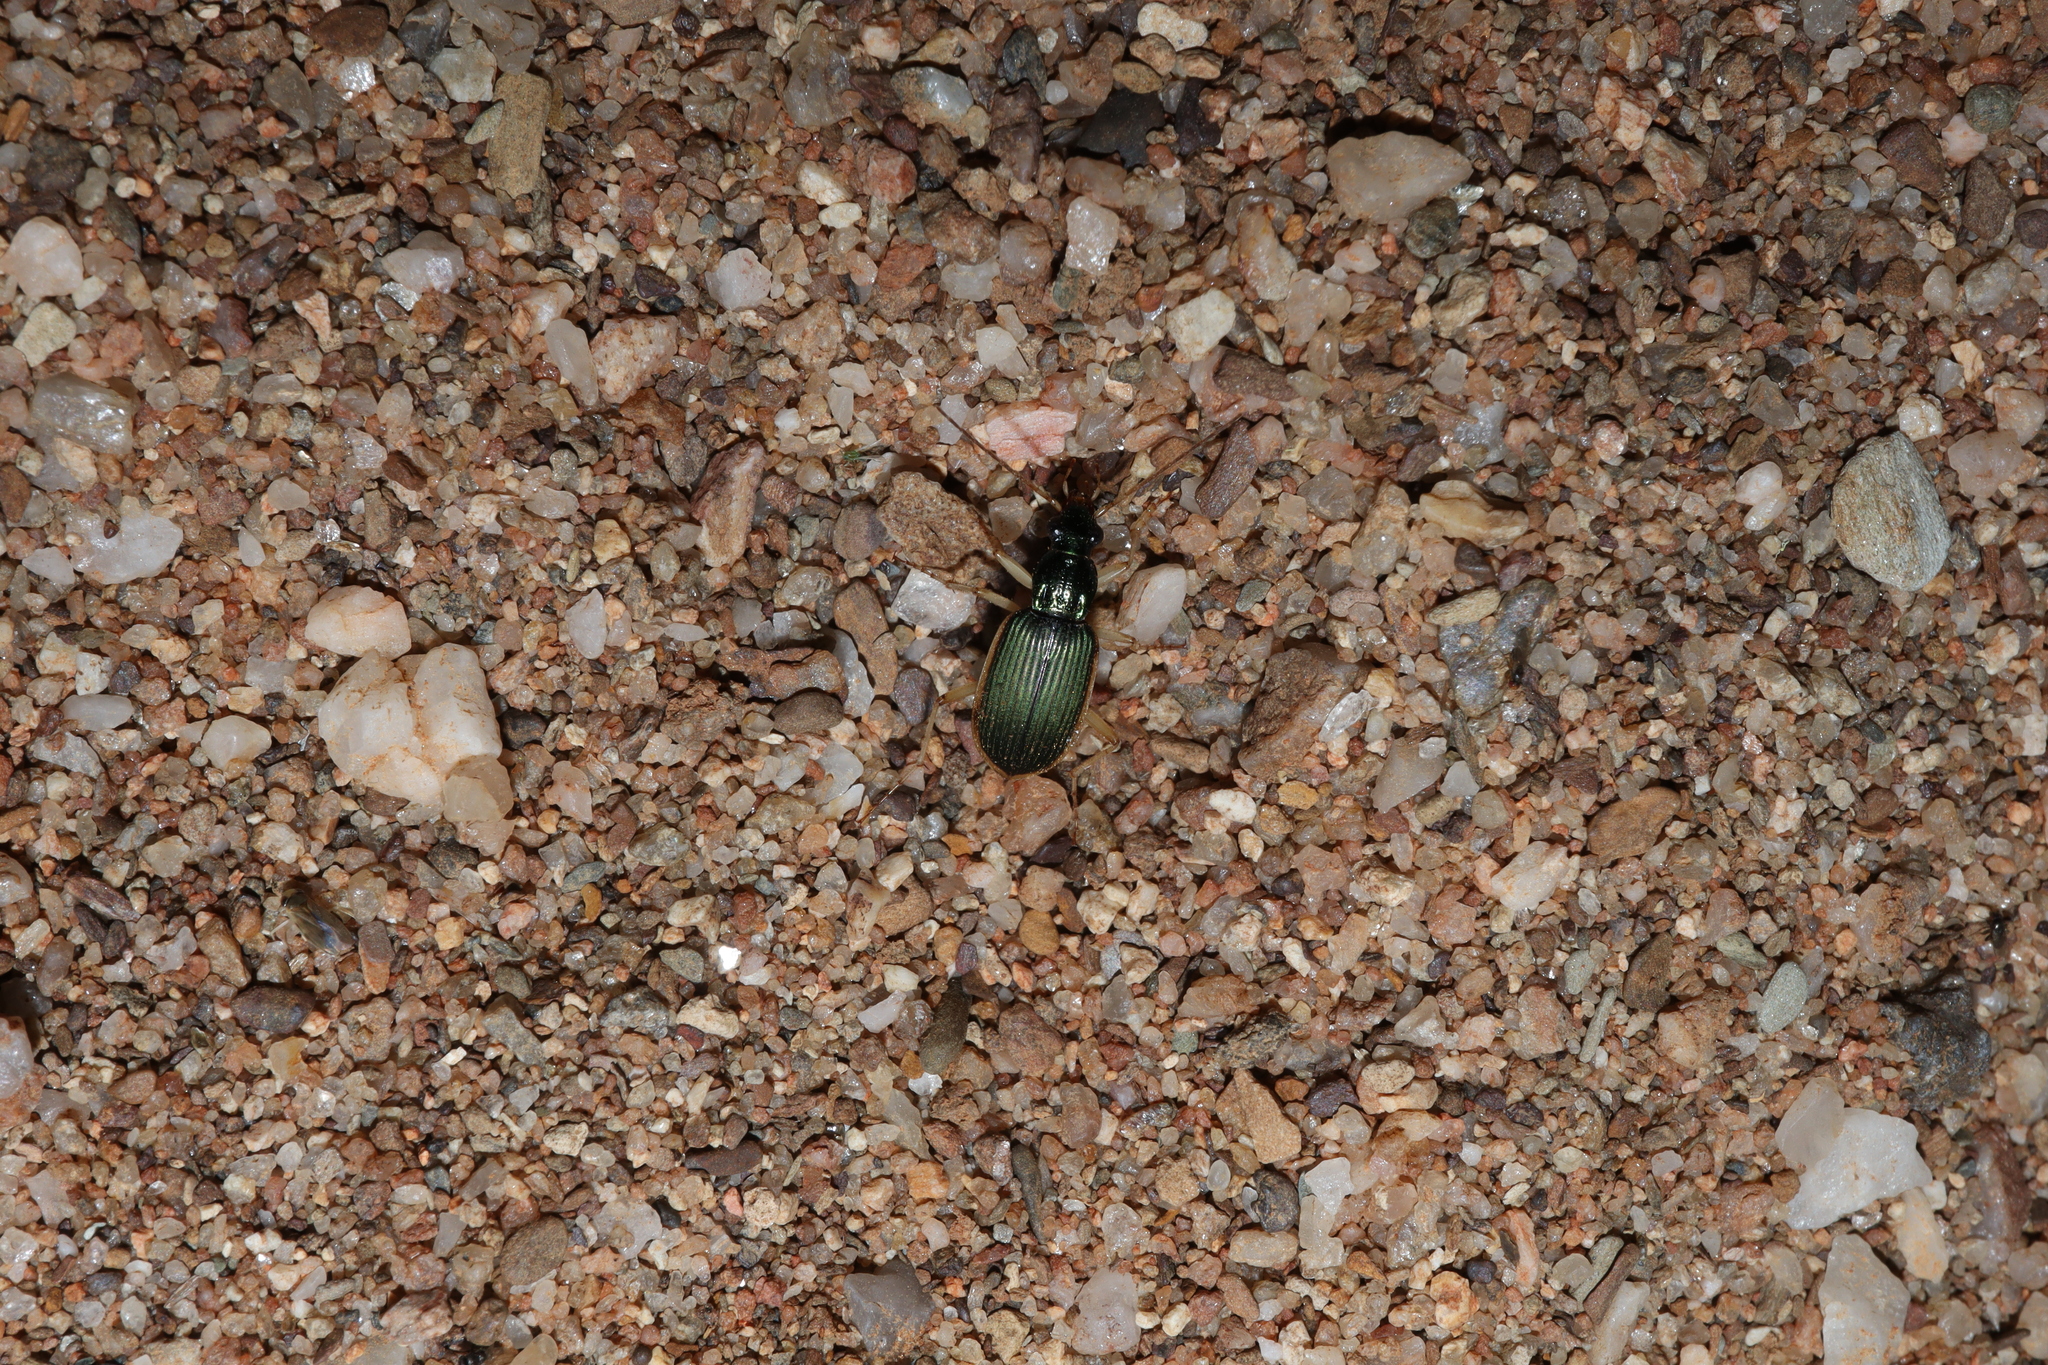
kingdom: Animalia
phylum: Arthropoda
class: Insecta
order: Coleoptera
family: Carabidae
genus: Chlaenius
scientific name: Chlaenius darlingensis
